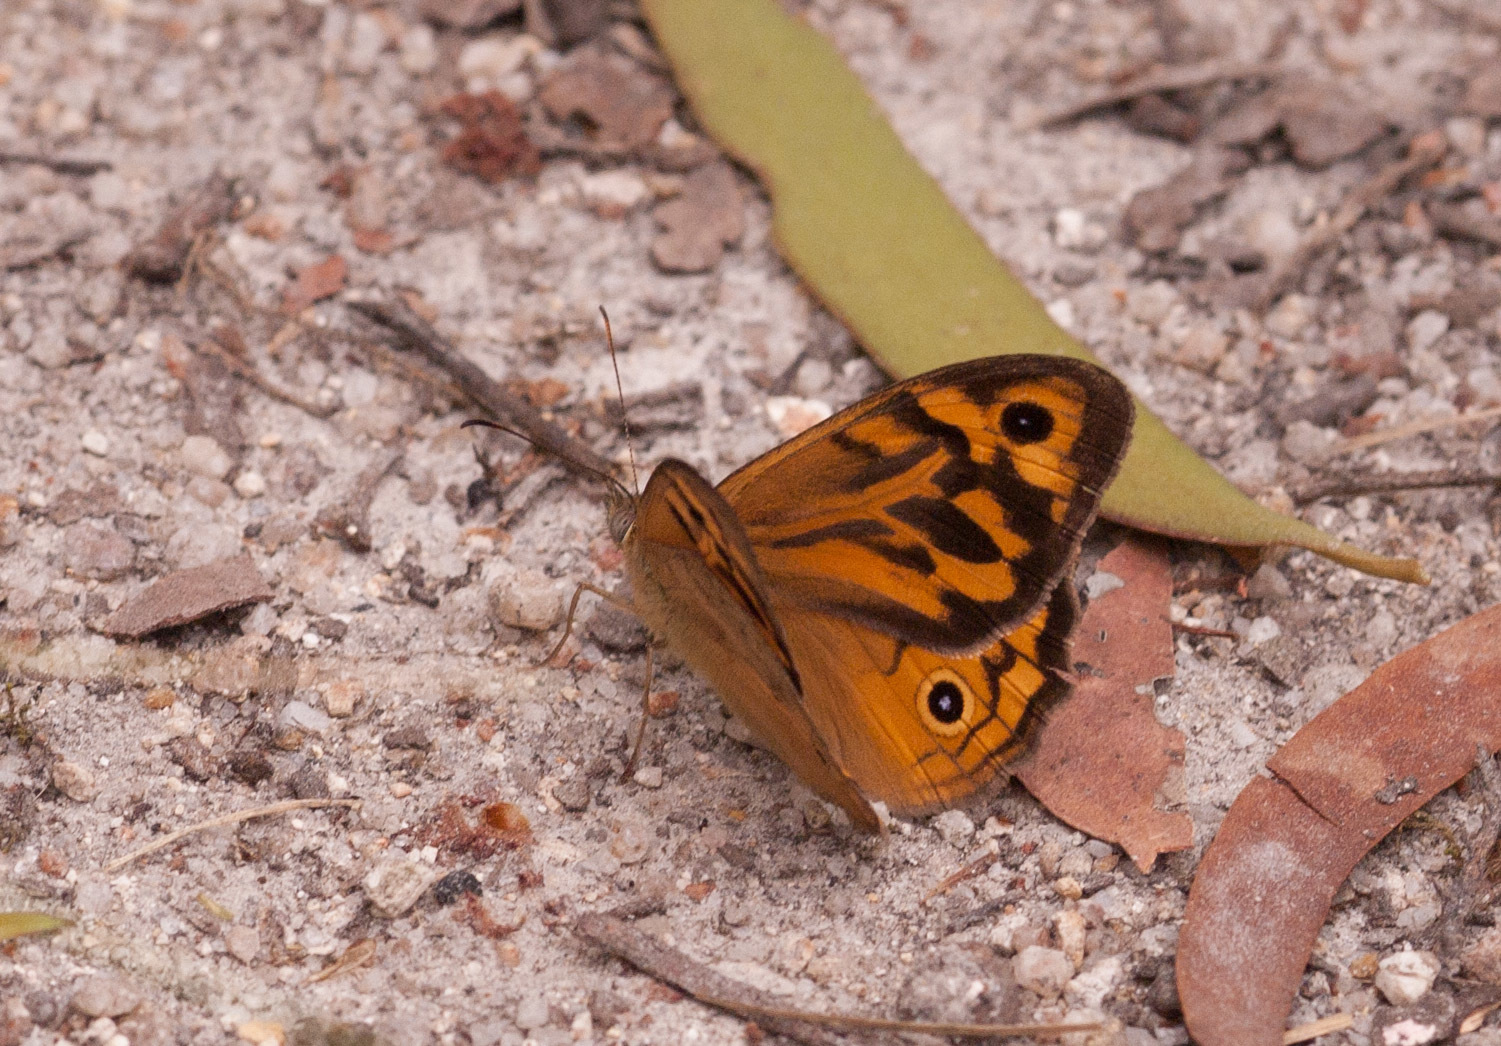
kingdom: Animalia
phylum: Arthropoda
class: Insecta
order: Lepidoptera
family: Nymphalidae
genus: Heteronympha
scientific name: Heteronympha merope
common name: Common brown
